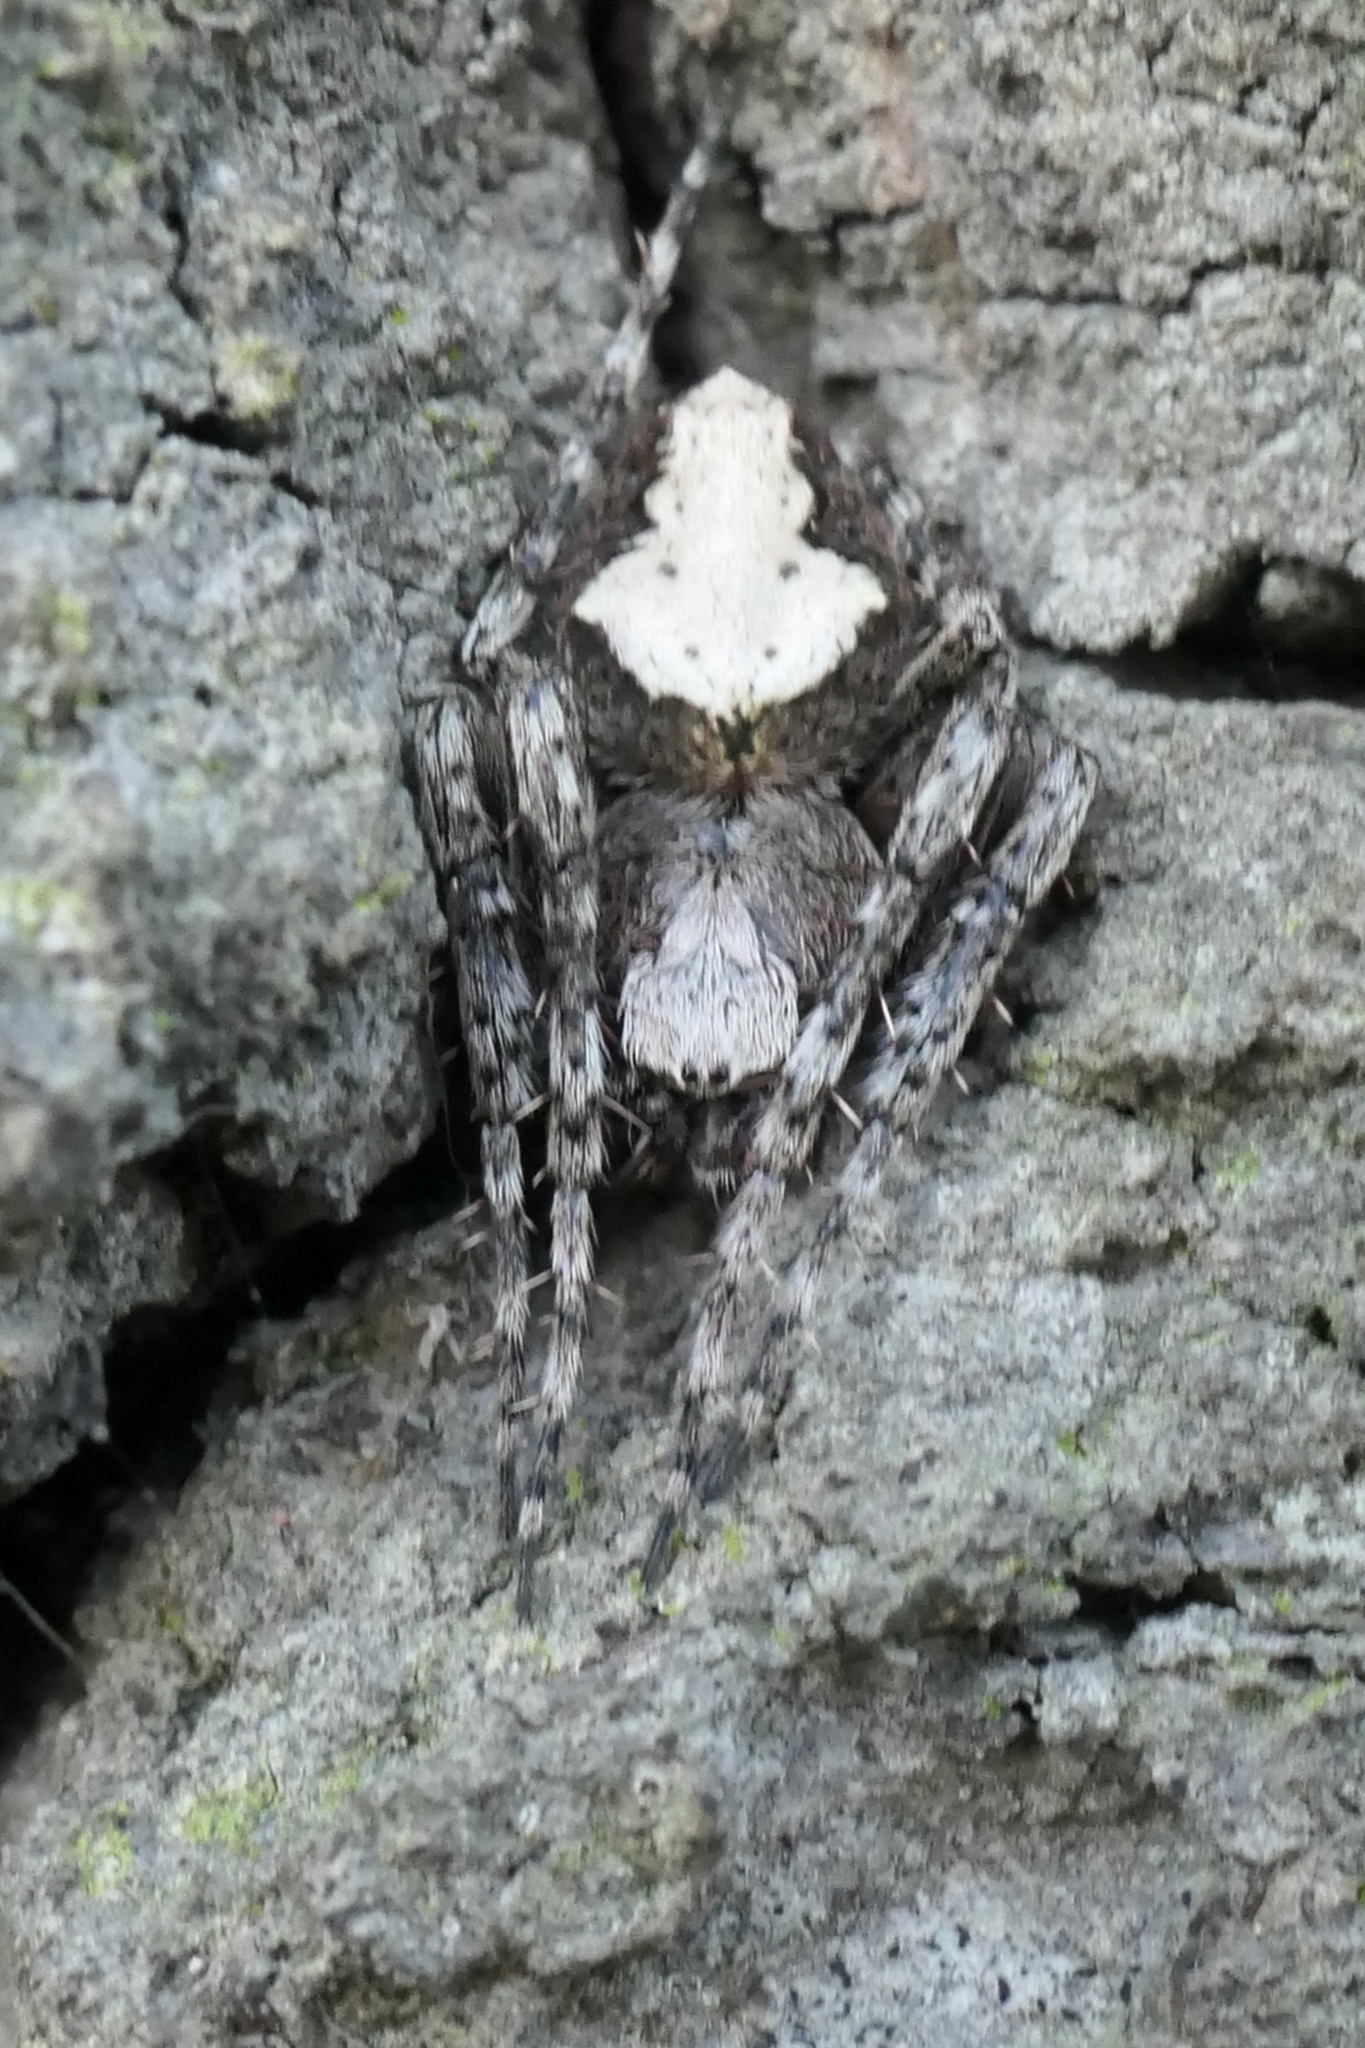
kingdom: Animalia
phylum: Arthropoda
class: Arachnida
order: Araneae
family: Araneidae
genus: Eriophora
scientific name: Eriophora pustulosa
